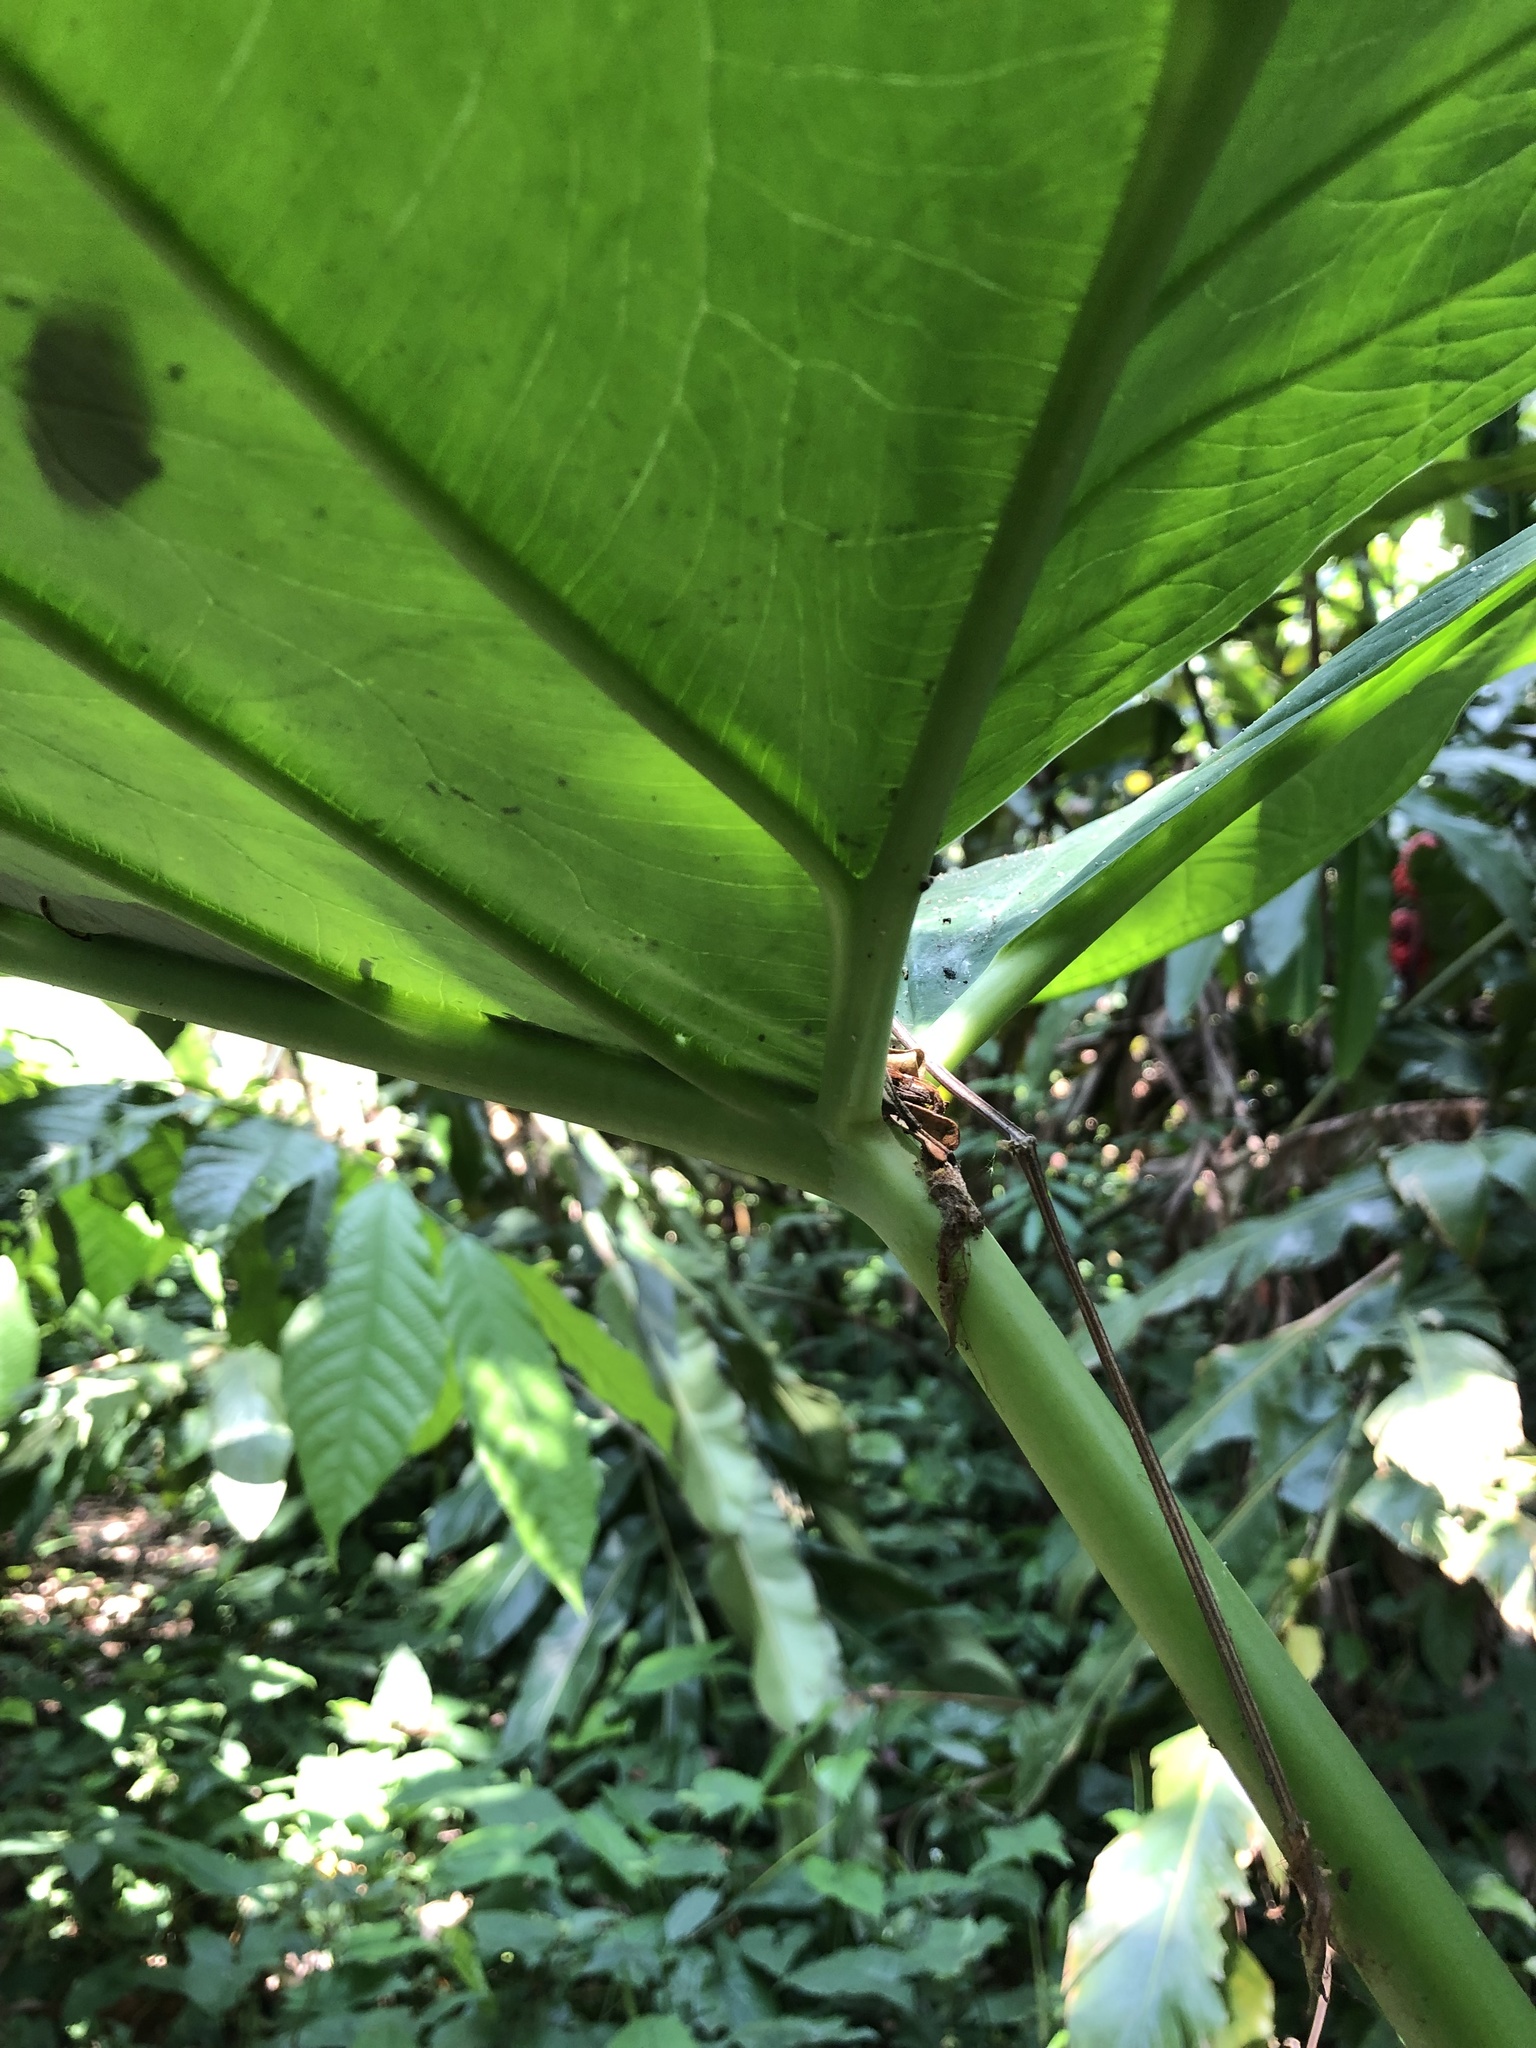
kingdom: Plantae
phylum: Tracheophyta
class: Liliopsida
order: Alismatales
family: Araceae
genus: Xanthosoma
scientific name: Xanthosoma robustum
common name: Capote
